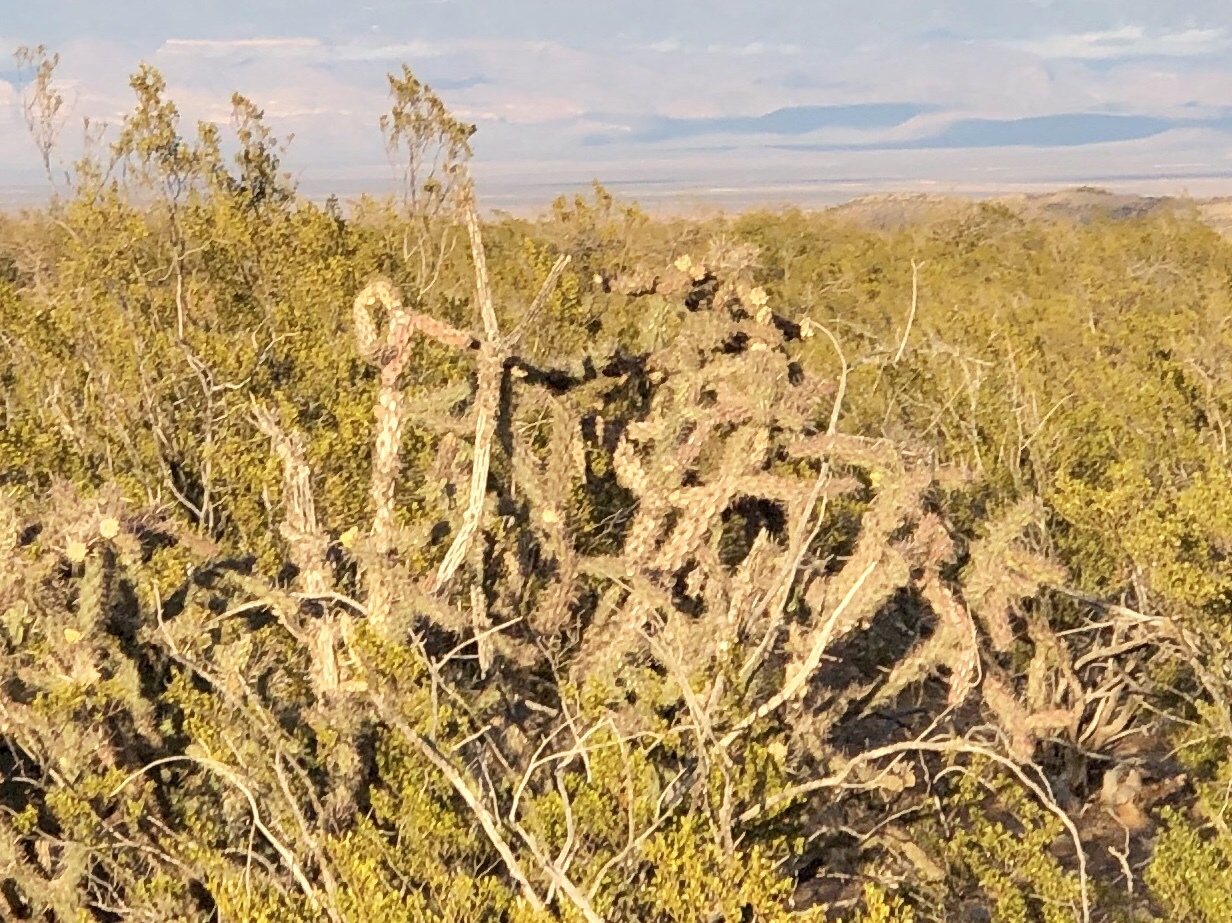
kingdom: Plantae
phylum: Tracheophyta
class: Magnoliopsida
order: Caryophyllales
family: Cactaceae
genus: Cylindropuntia
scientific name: Cylindropuntia imbricata
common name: Candelabrum cactus
